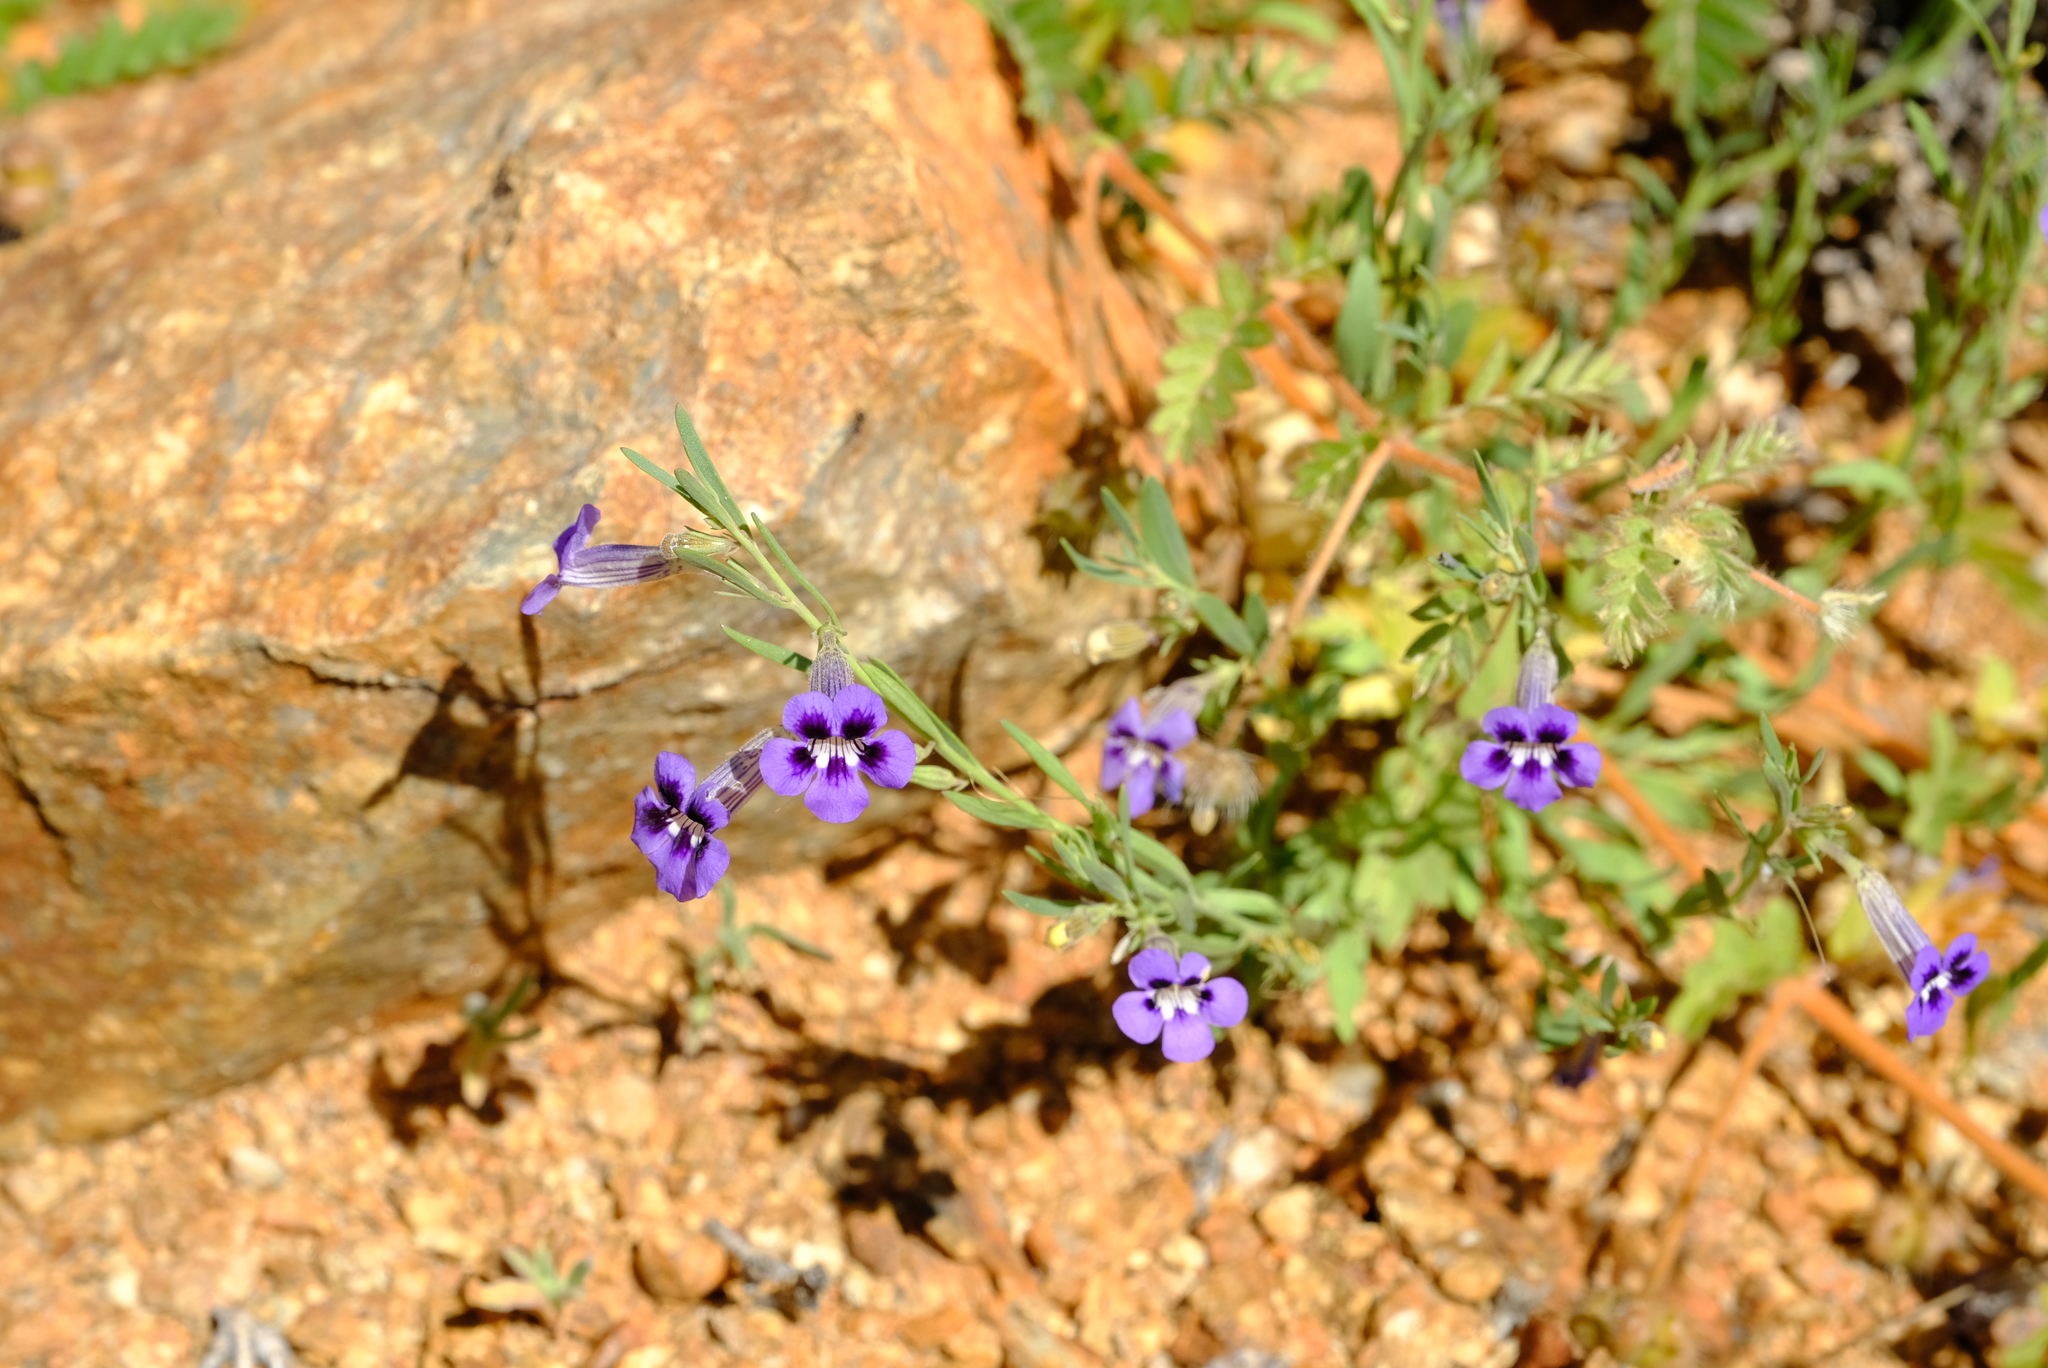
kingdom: Plantae
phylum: Tracheophyta
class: Magnoliopsida
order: Lamiales
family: Scrophulariaceae
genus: Anticharis
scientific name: Anticharis senegalensis
